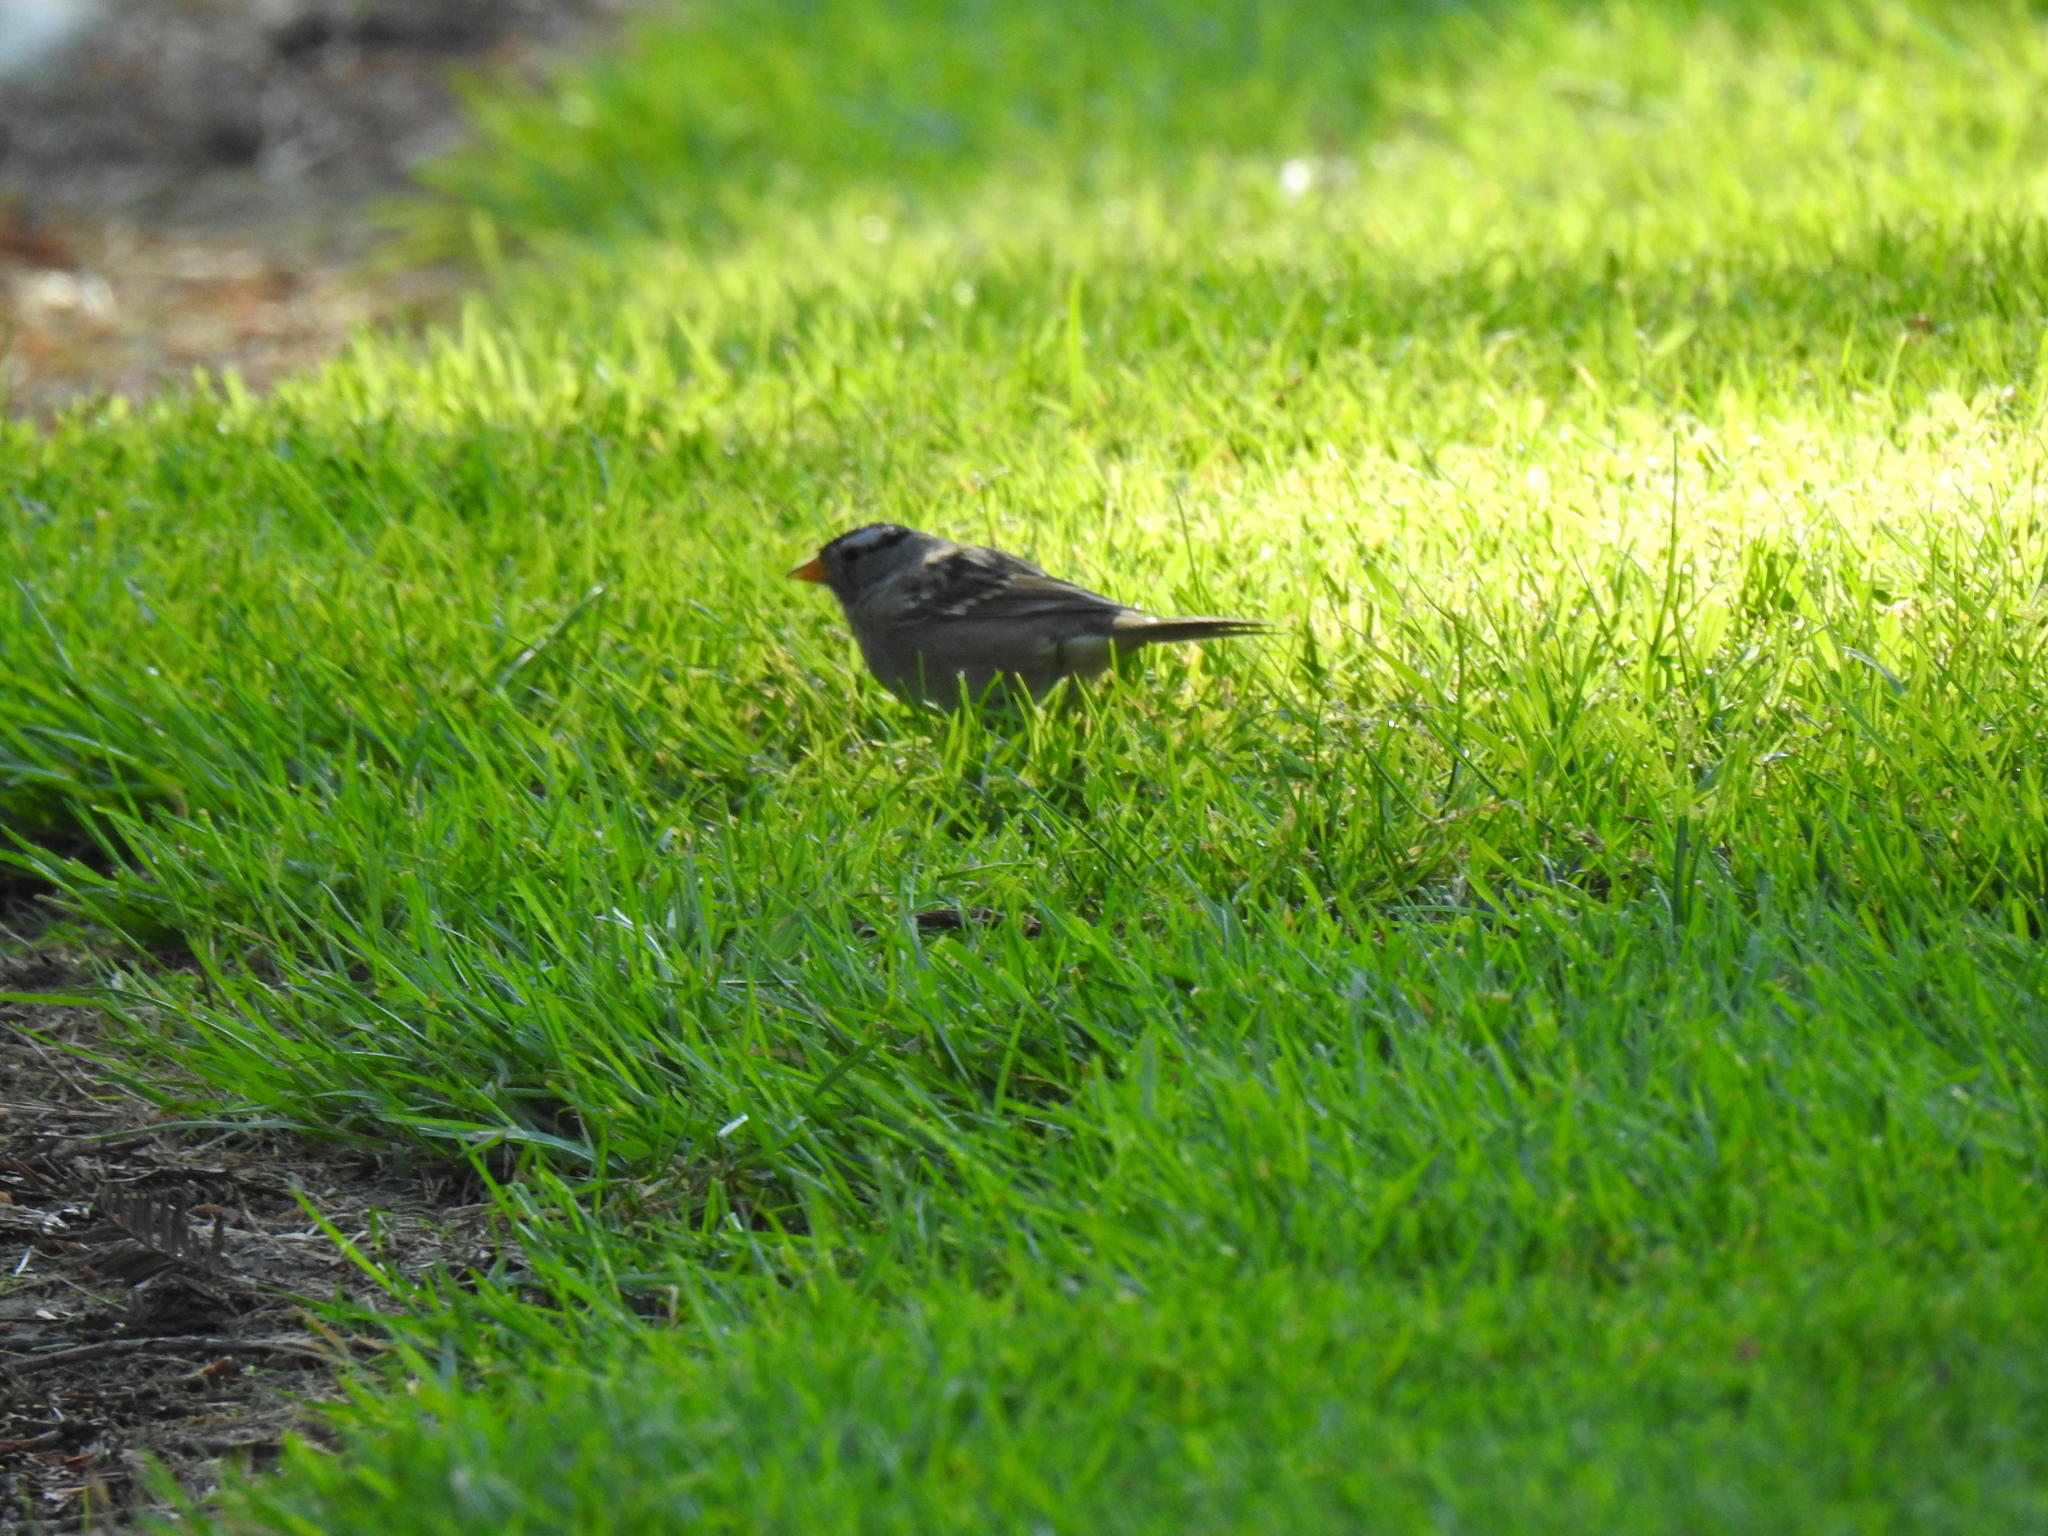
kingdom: Animalia
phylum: Chordata
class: Aves
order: Passeriformes
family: Passerellidae
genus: Zonotrichia
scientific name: Zonotrichia leucophrys
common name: White-crowned sparrow
